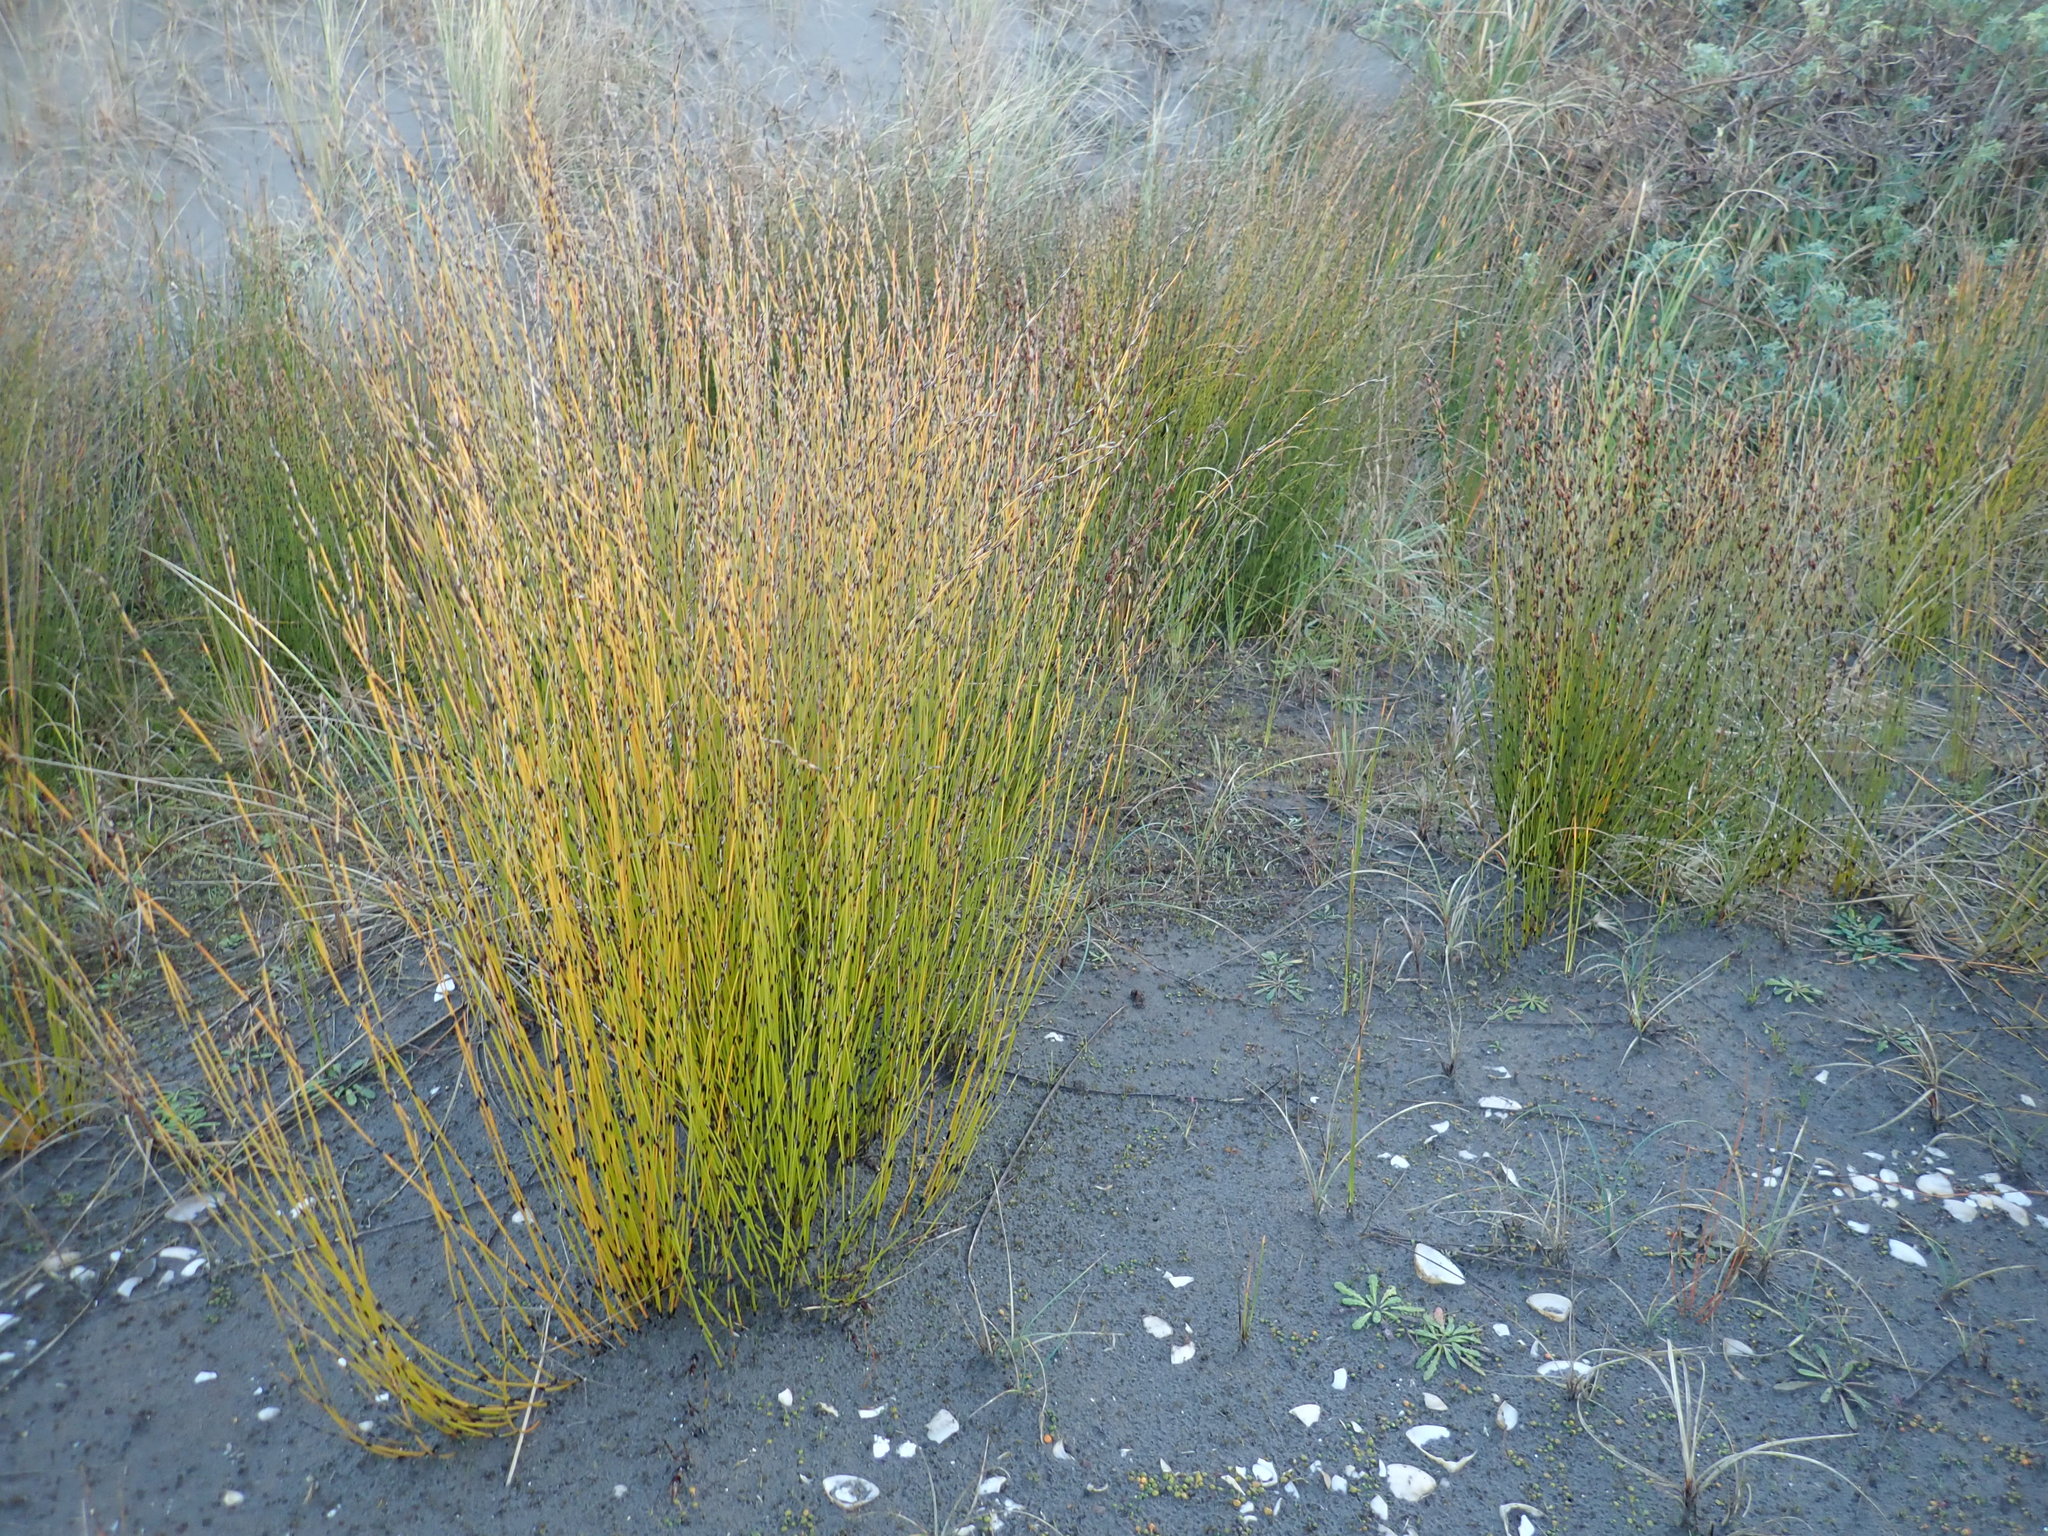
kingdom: Plantae
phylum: Tracheophyta
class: Liliopsida
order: Poales
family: Restionaceae
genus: Apodasmia
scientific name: Apodasmia similis
